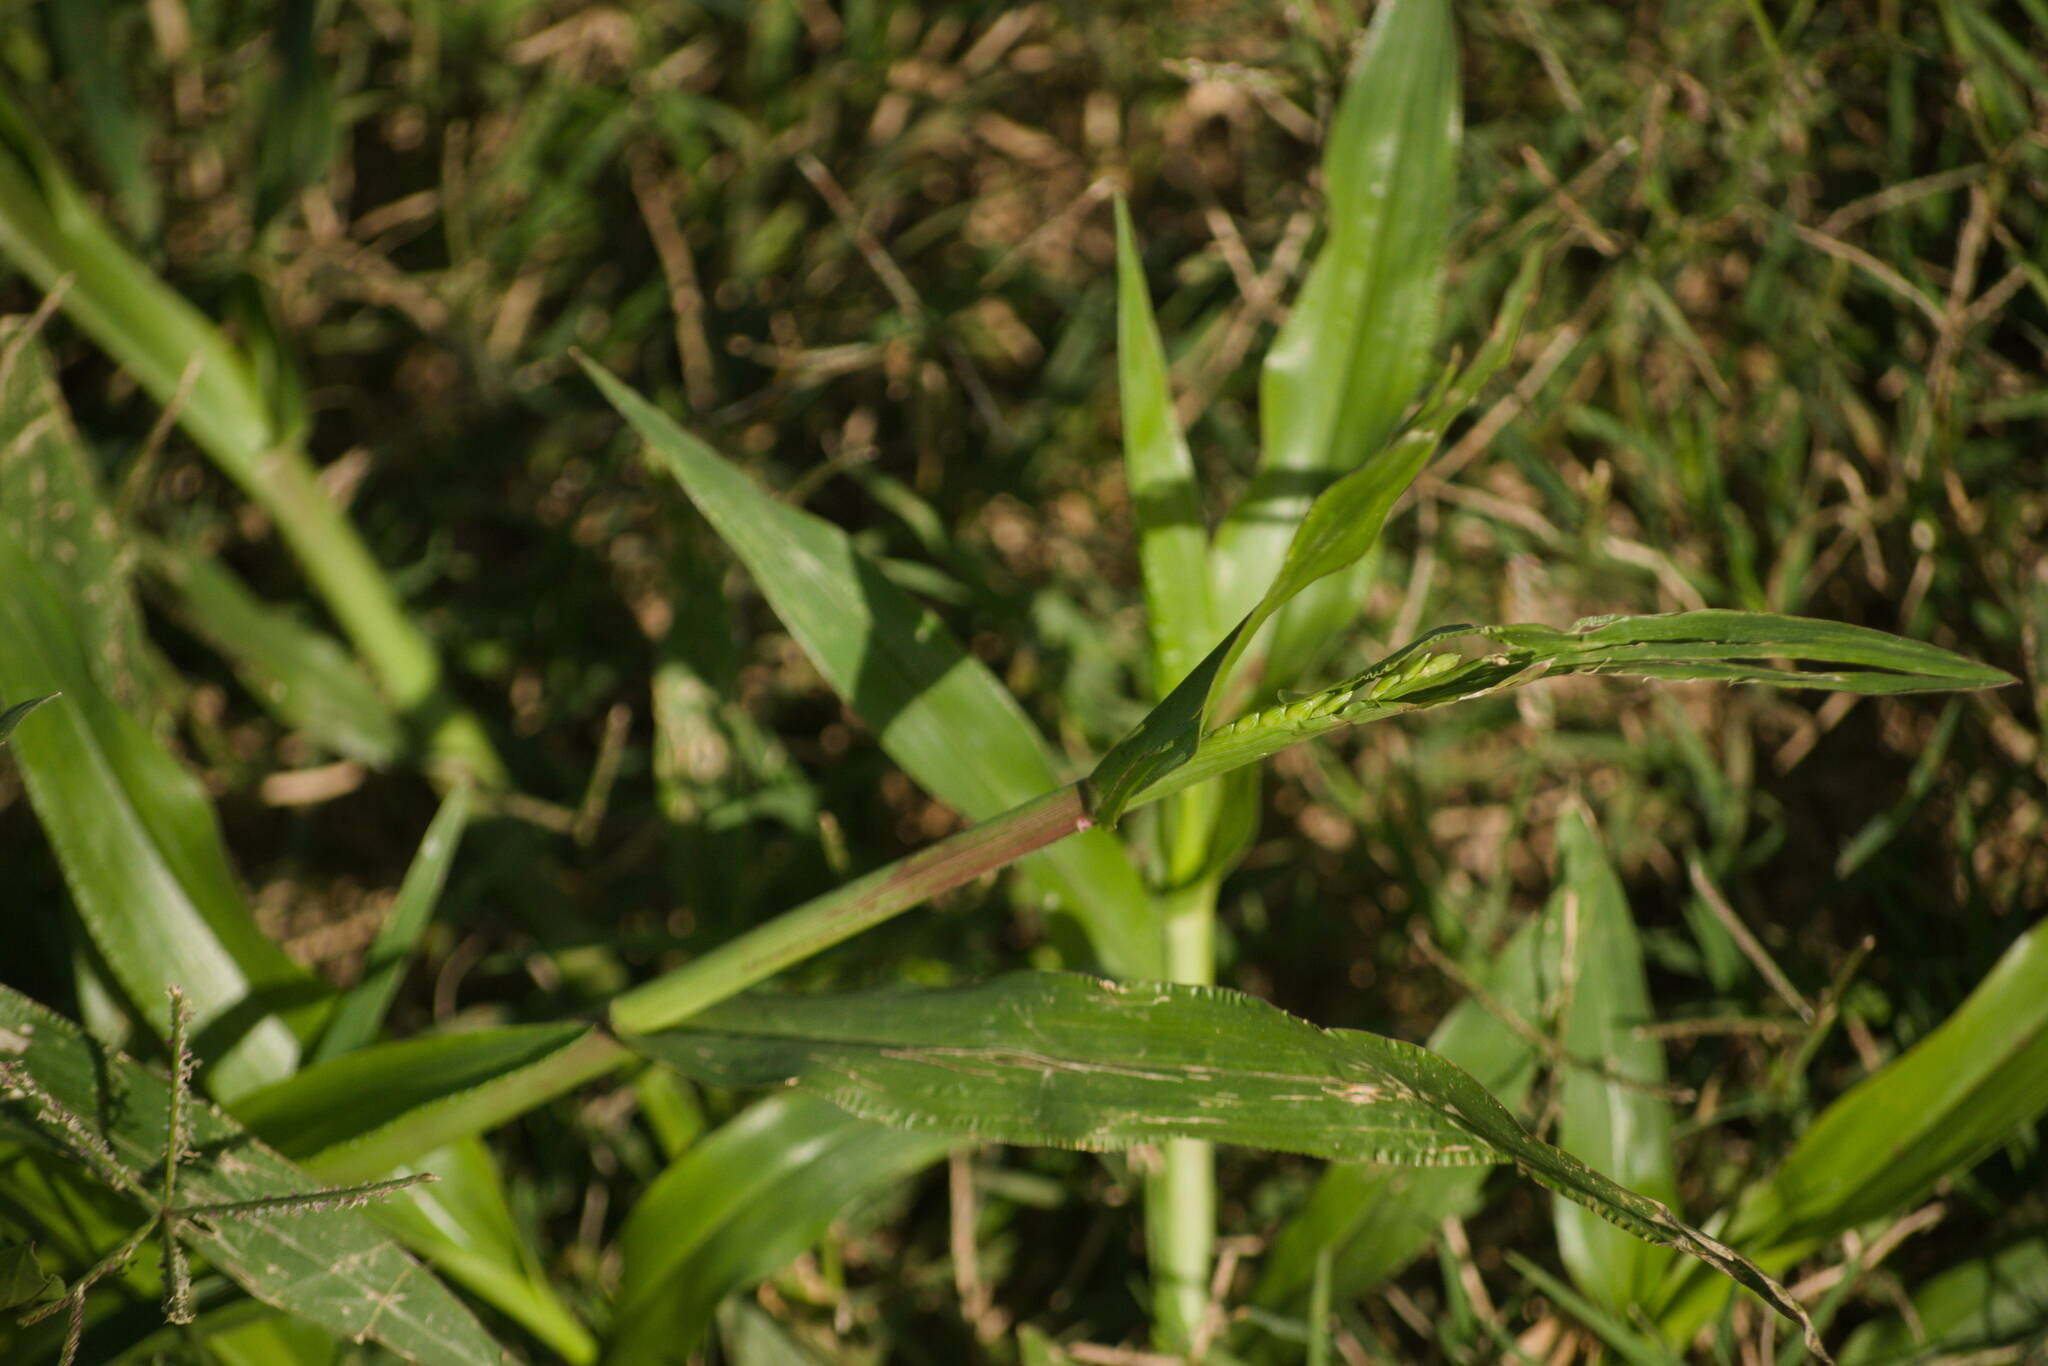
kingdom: Plantae
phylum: Tracheophyta
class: Liliopsida
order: Poales
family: Poaceae
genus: Urochloa
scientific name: Urochloa plantaginea
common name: Plantain signalgrass
